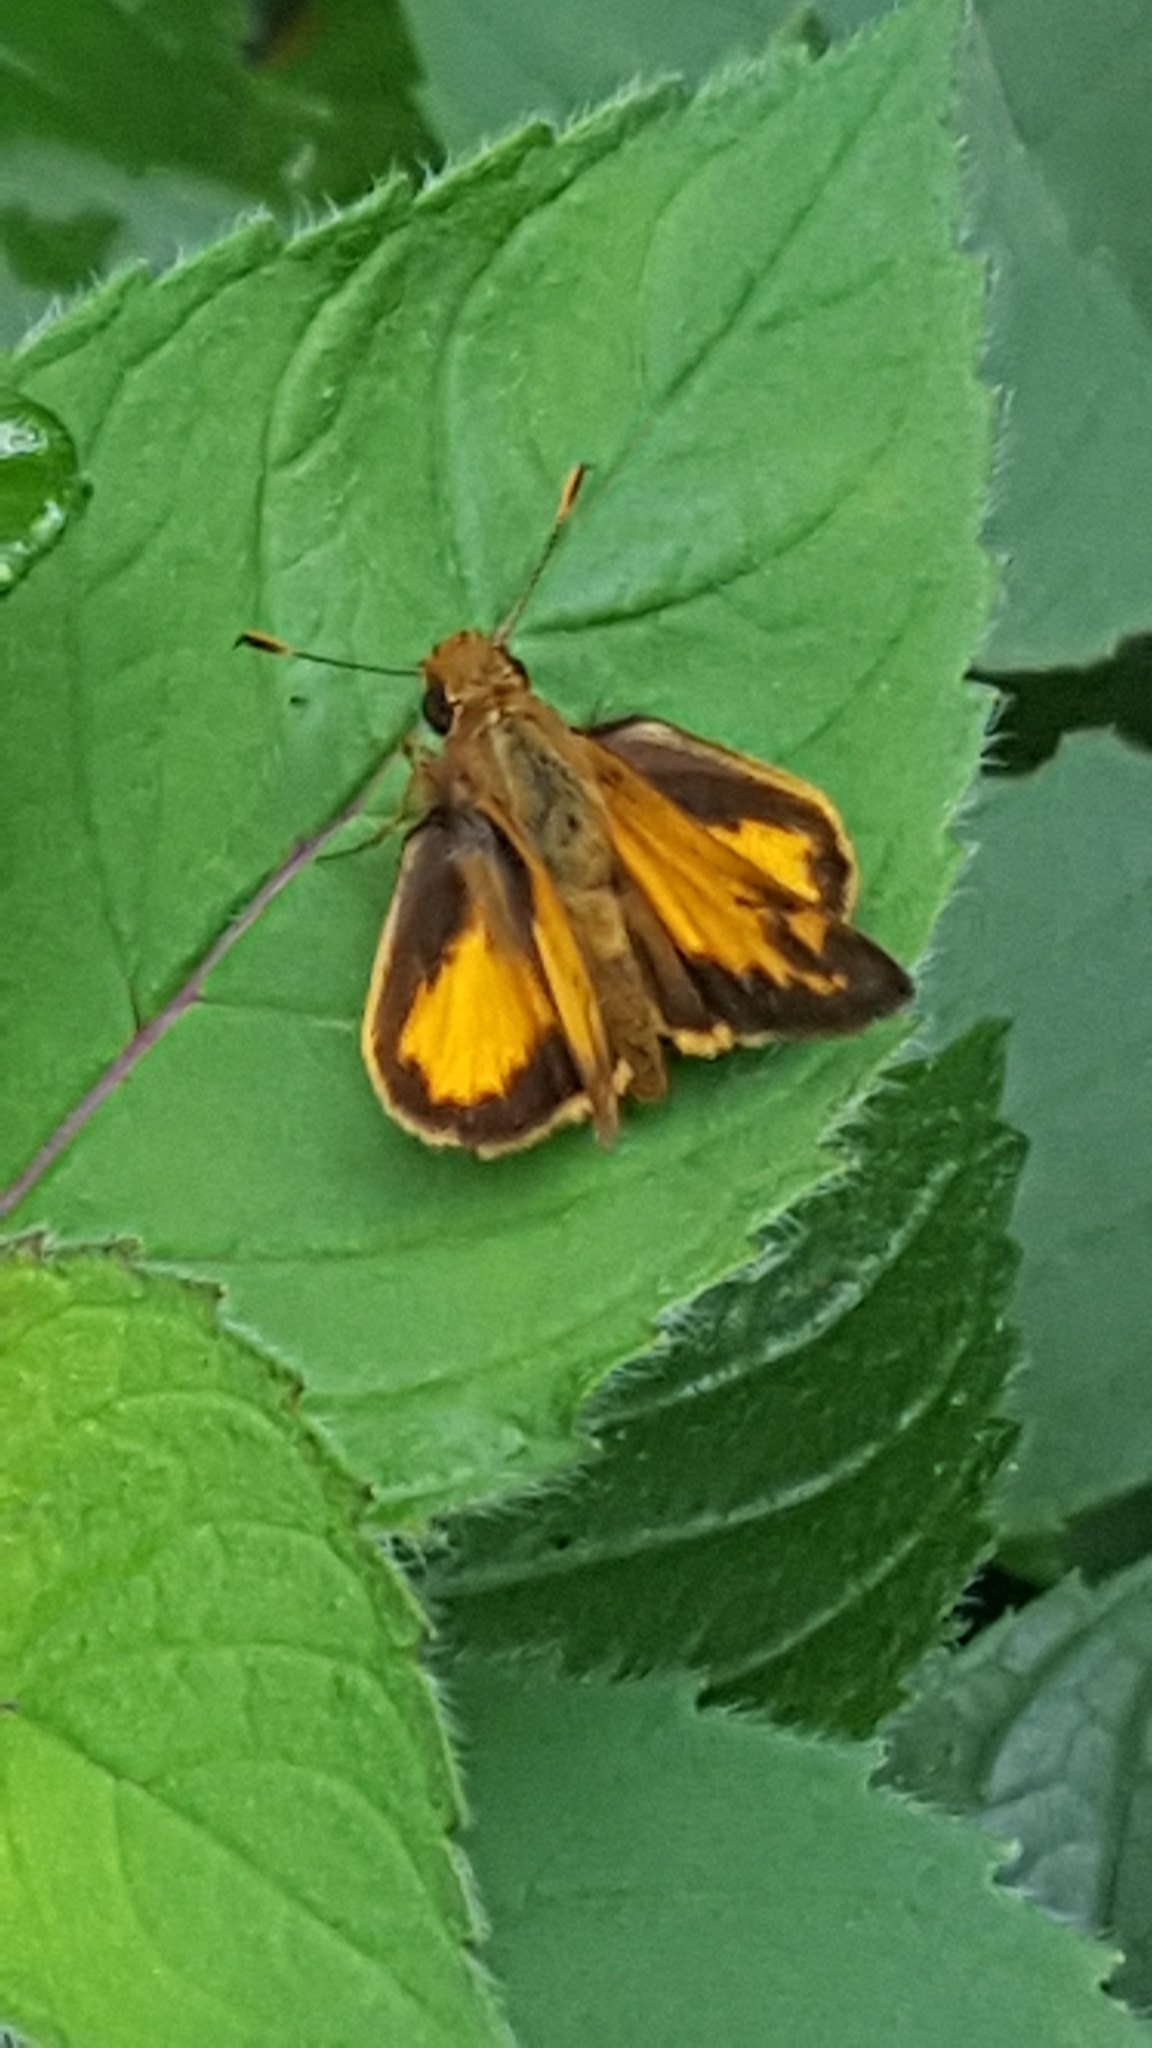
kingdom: Animalia
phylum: Arthropoda
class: Insecta
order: Lepidoptera
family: Hesperiidae
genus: Lon
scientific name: Lon zabulon
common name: Zabulon skipper
